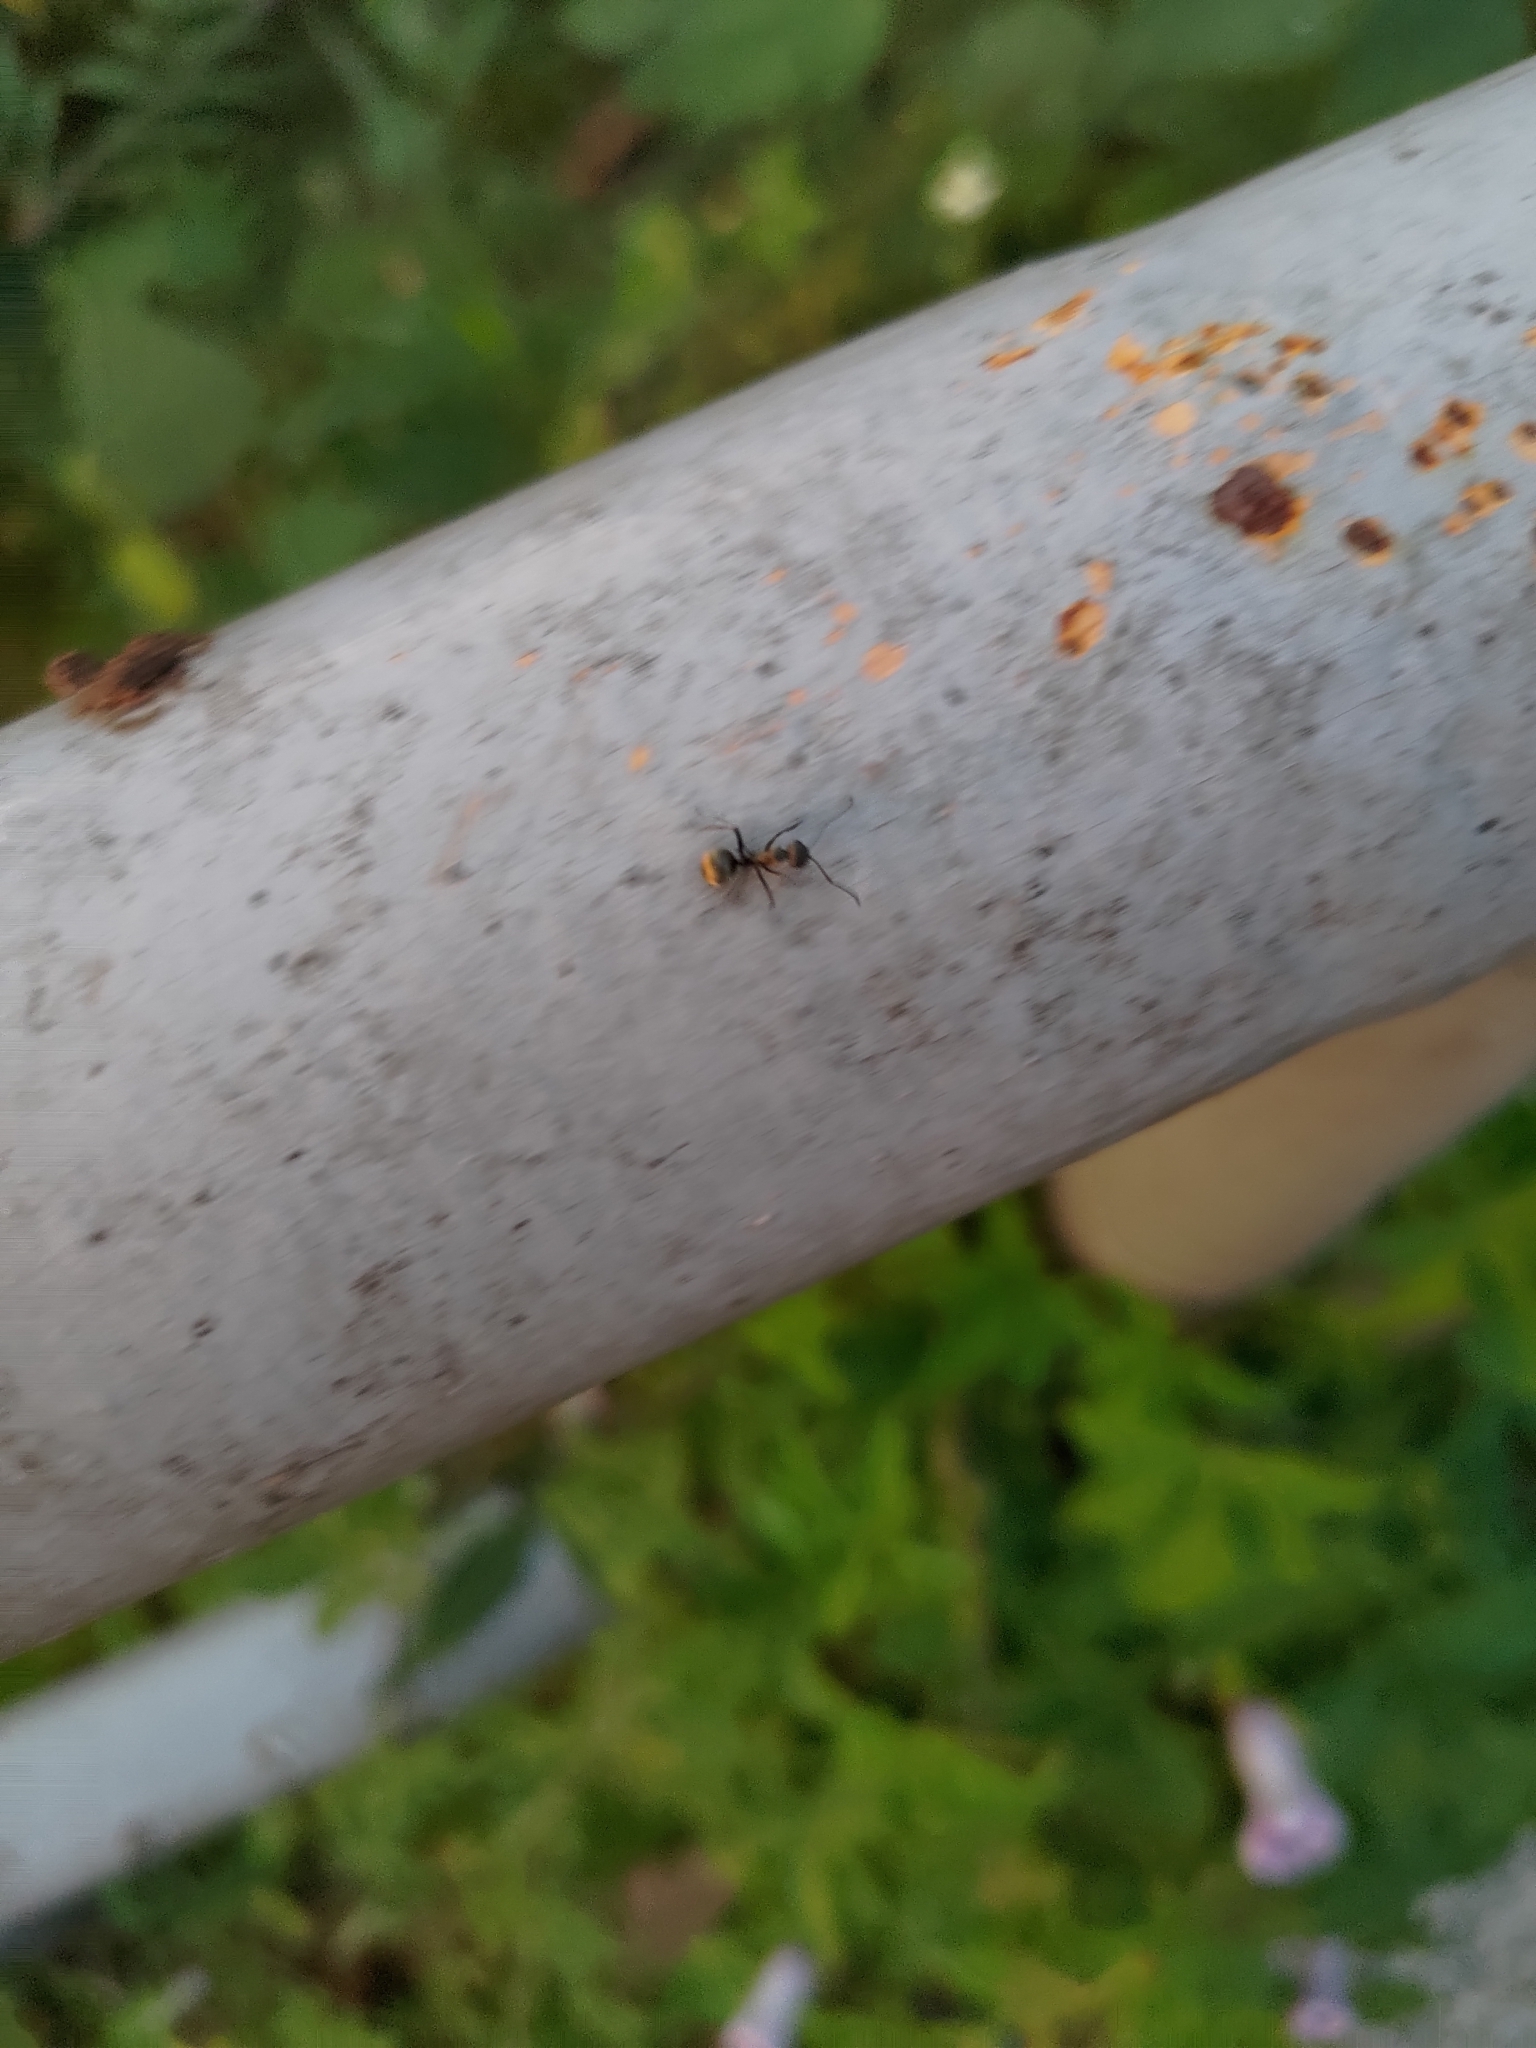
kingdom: Animalia
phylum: Arthropoda
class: Insecta
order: Hymenoptera
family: Formicidae
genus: Polyrhachis
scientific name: Polyrhachis dives
